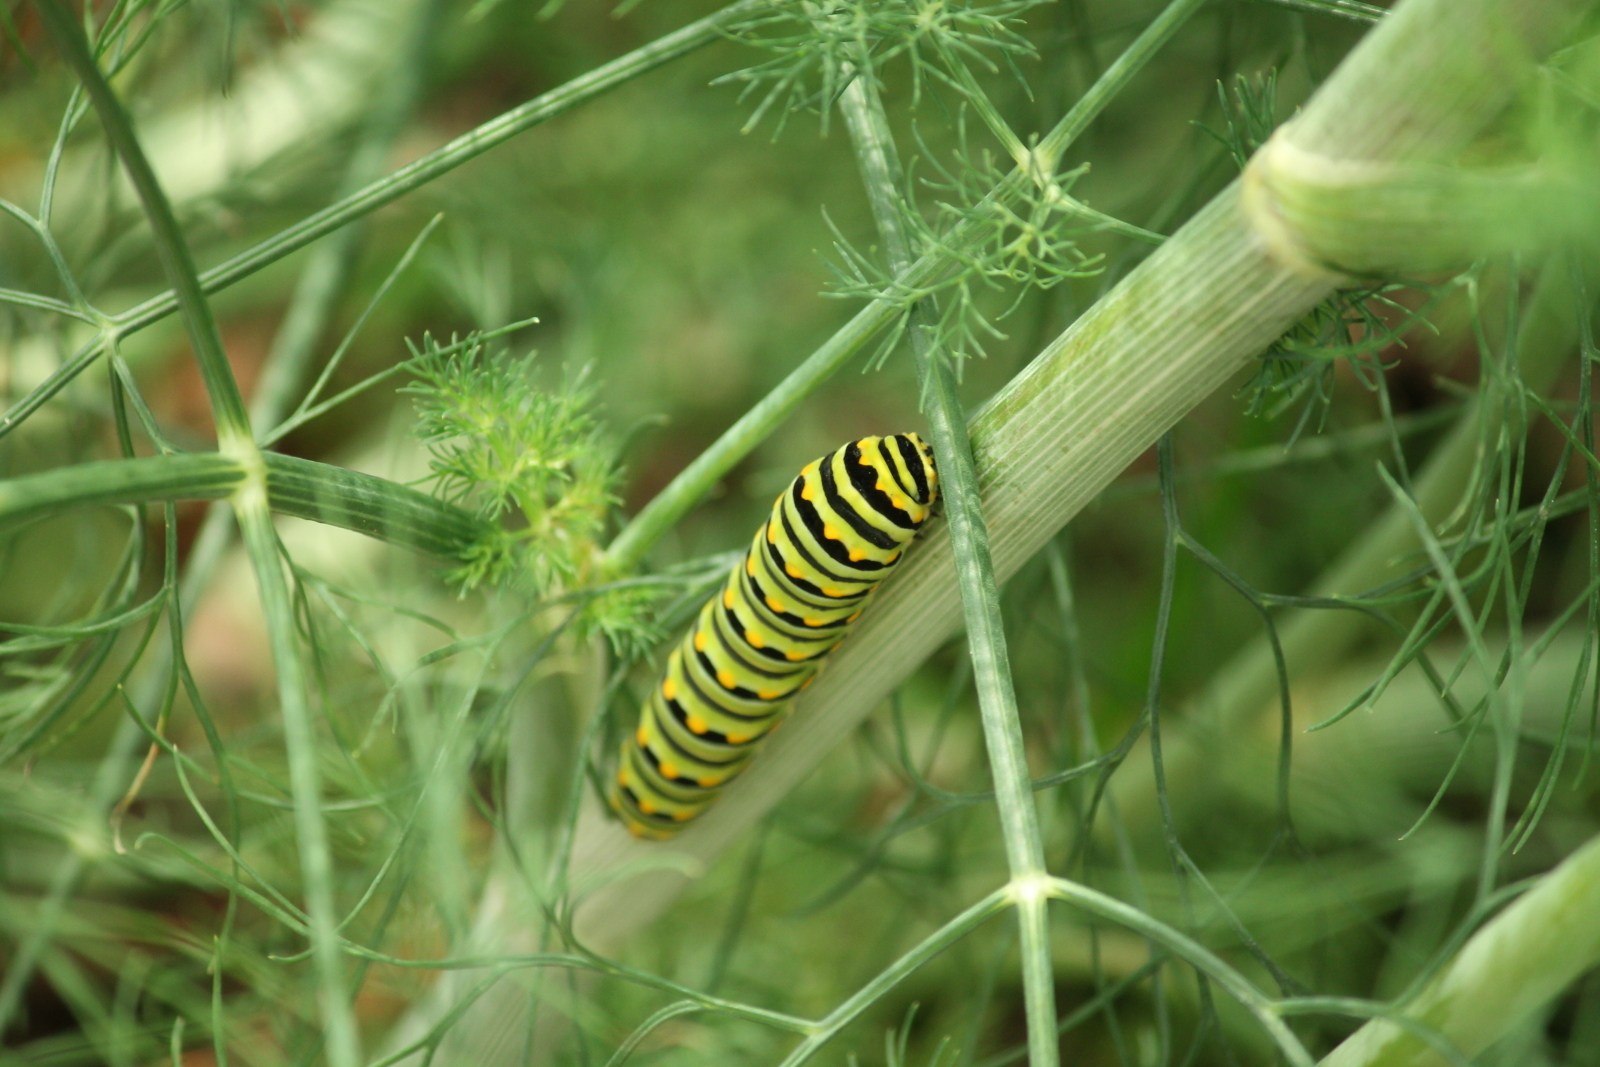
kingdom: Animalia
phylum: Arthropoda
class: Insecta
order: Lepidoptera
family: Papilionidae
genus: Papilio
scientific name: Papilio polyxenes
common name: Black swallowtail
